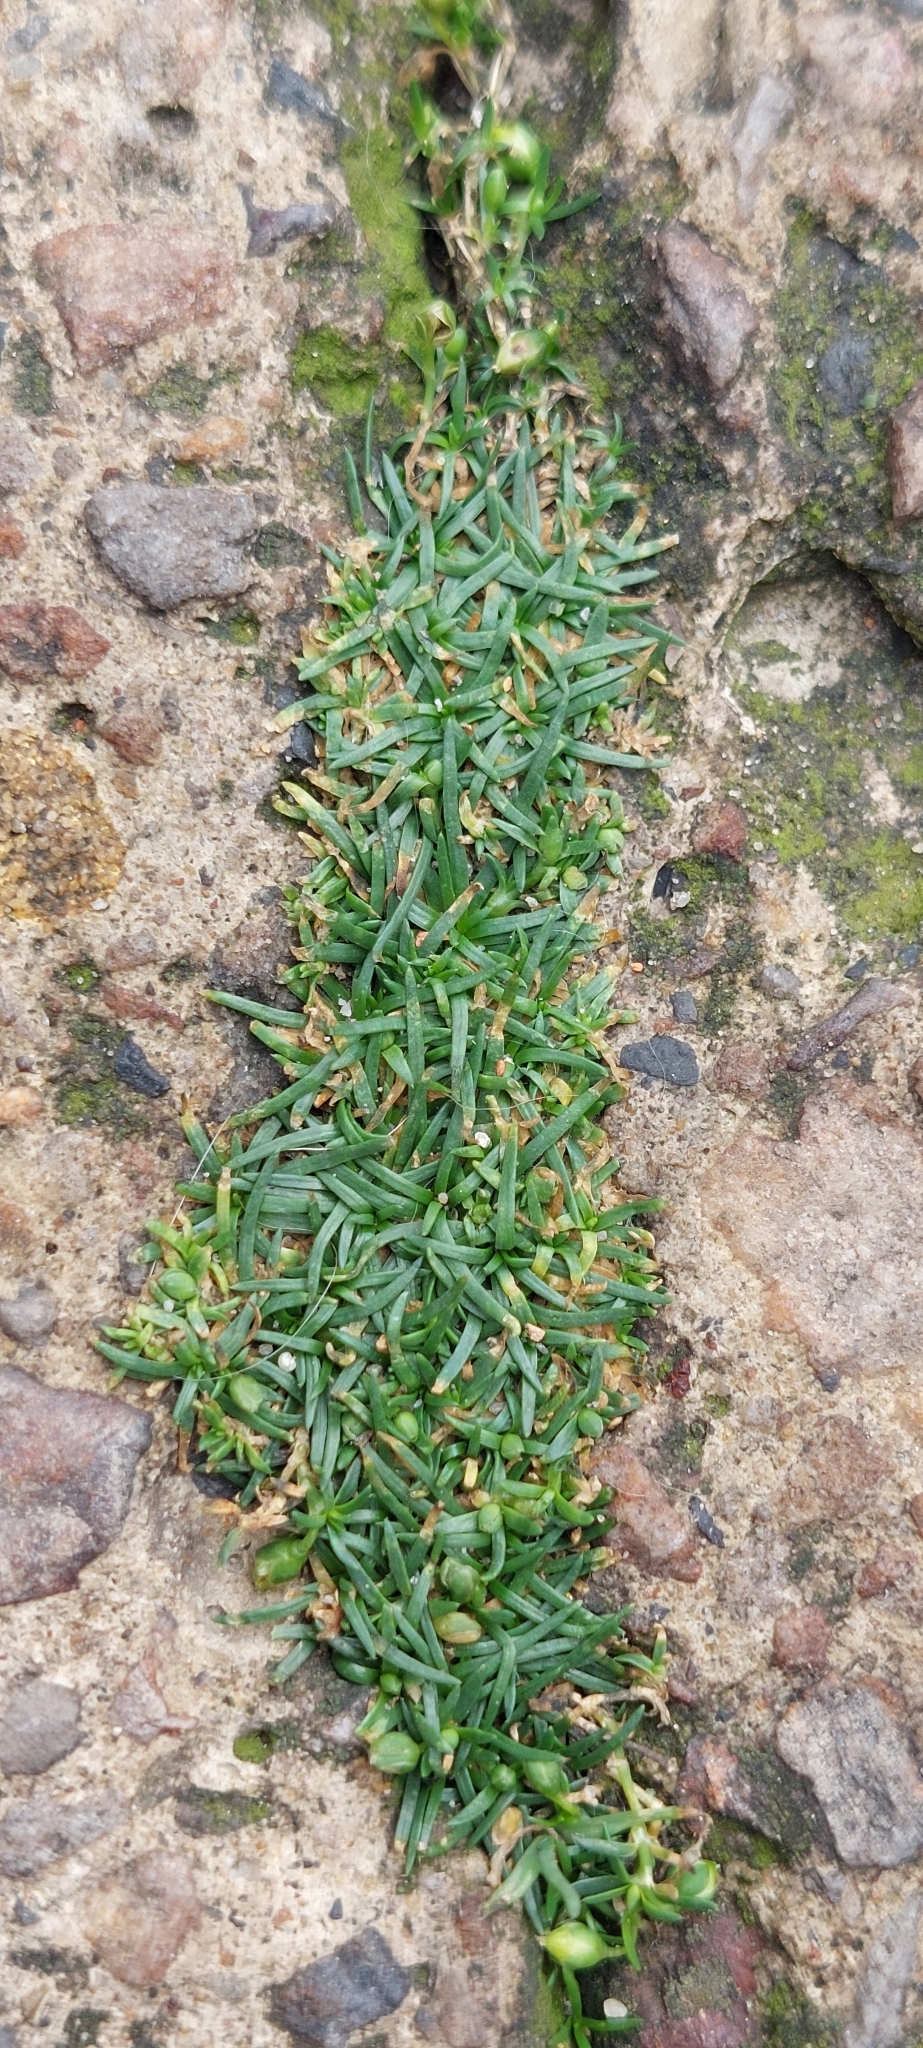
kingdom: Plantae
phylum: Tracheophyta
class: Magnoliopsida
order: Caryophyllales
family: Caryophyllaceae
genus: Sagina
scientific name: Sagina procumbens
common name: Procumbent pearlwort
